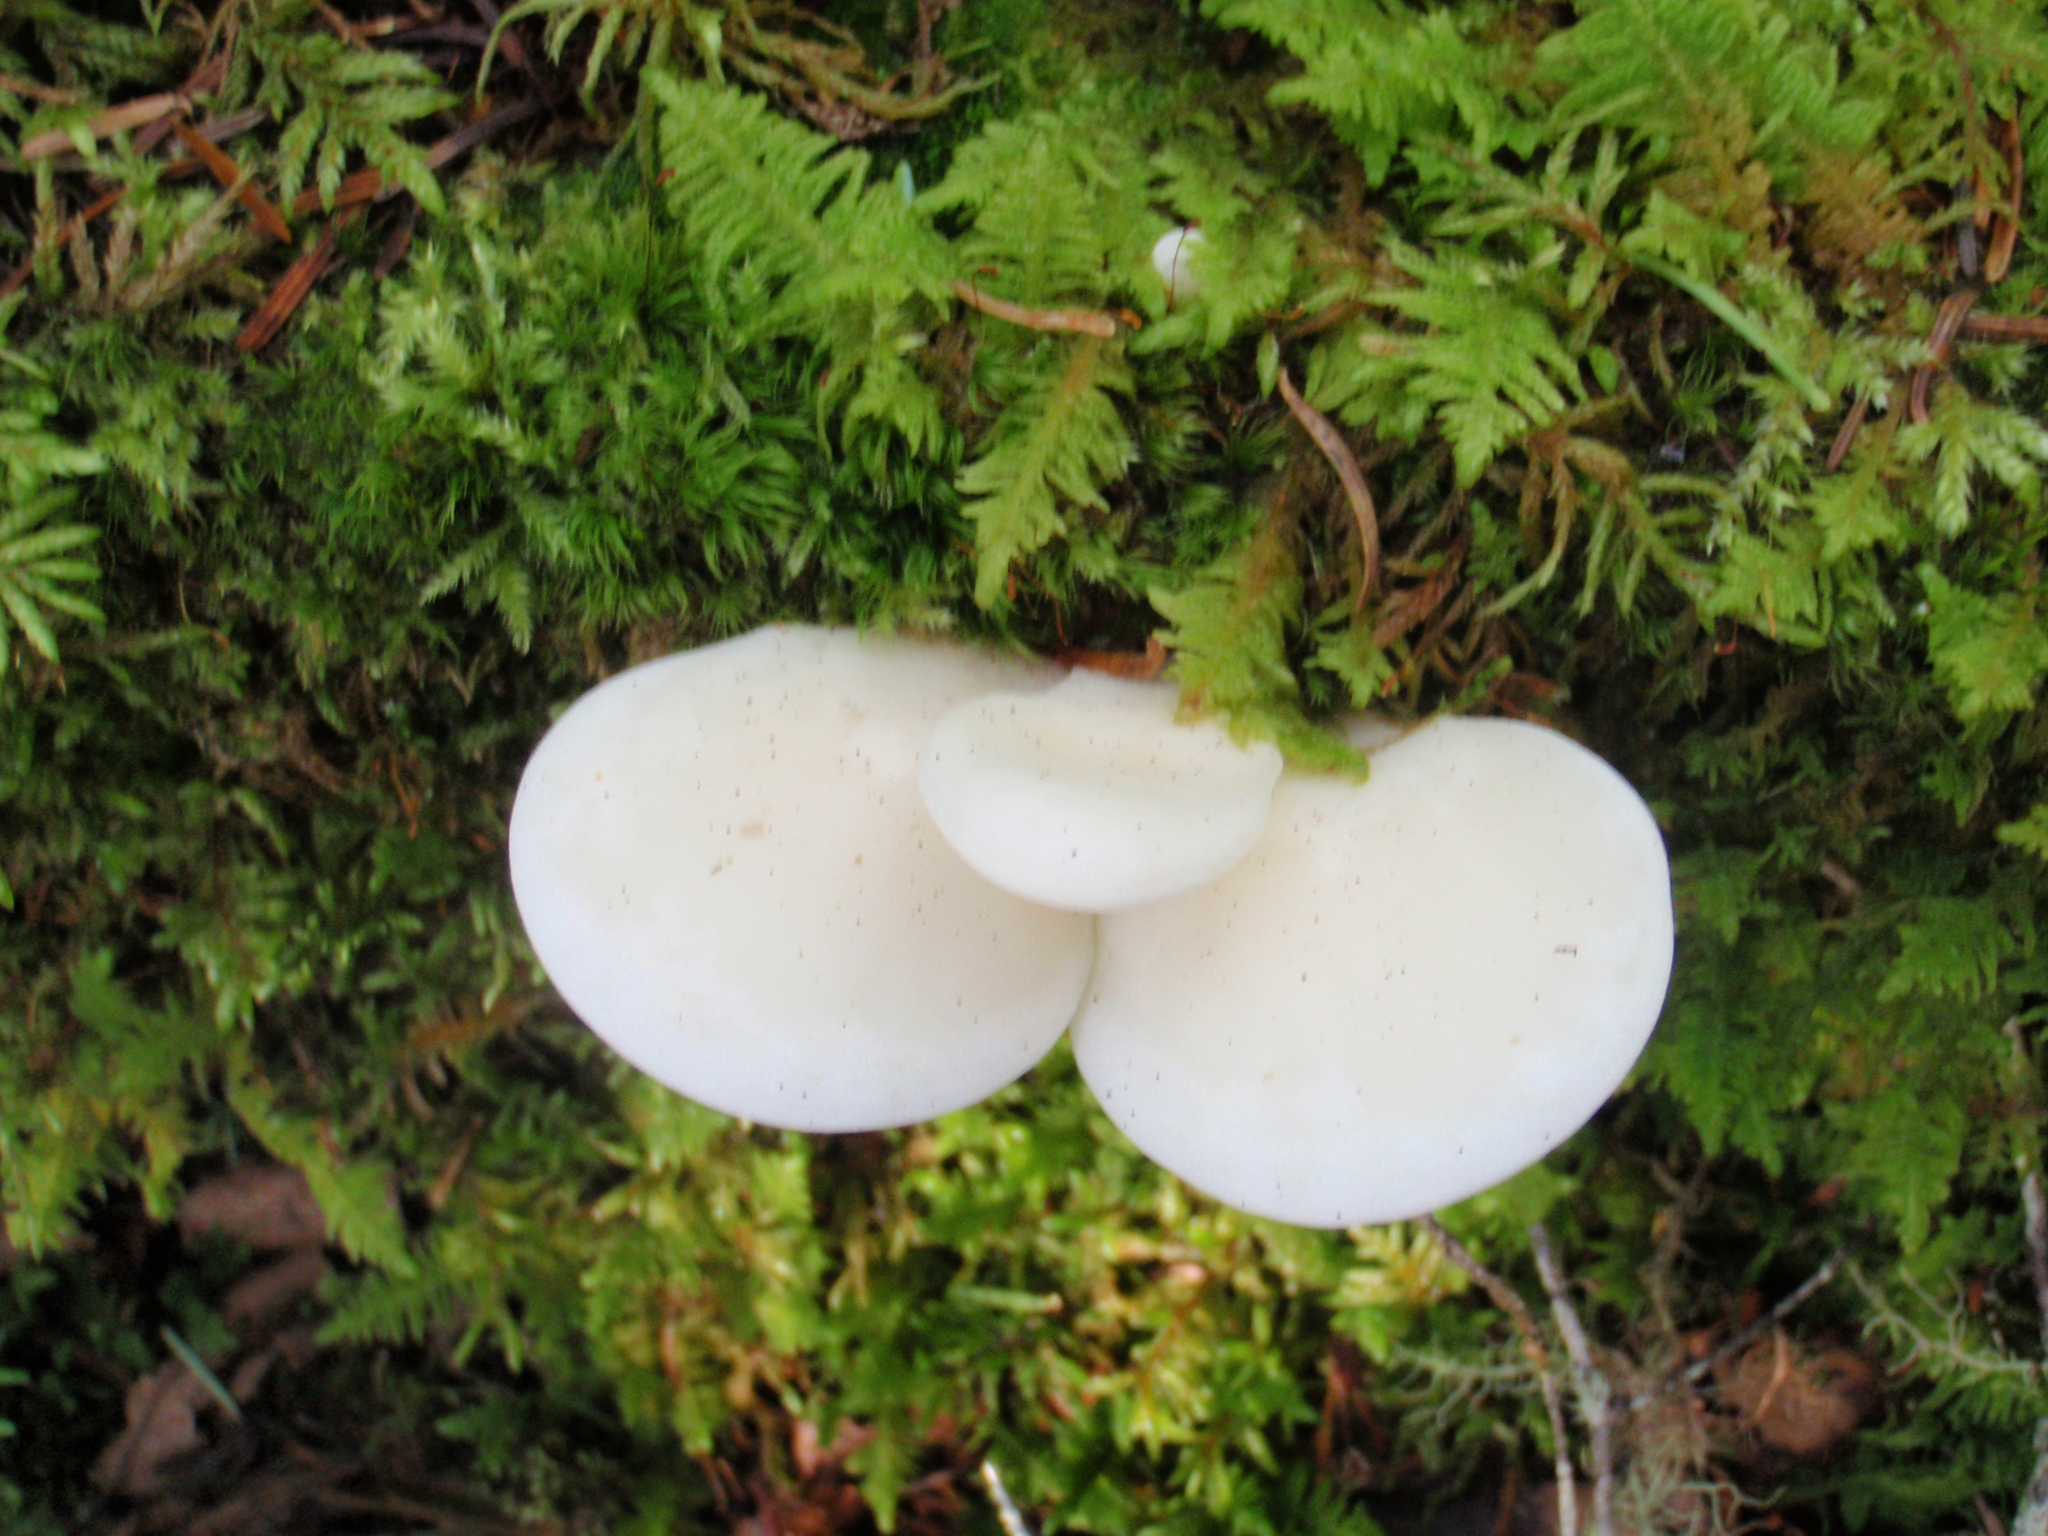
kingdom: Fungi
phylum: Basidiomycota
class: Agaricomycetes
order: Agaricales
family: Marasmiaceae
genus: Pleurocybella
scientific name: Pleurocybella porrigens
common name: Angel's wings
